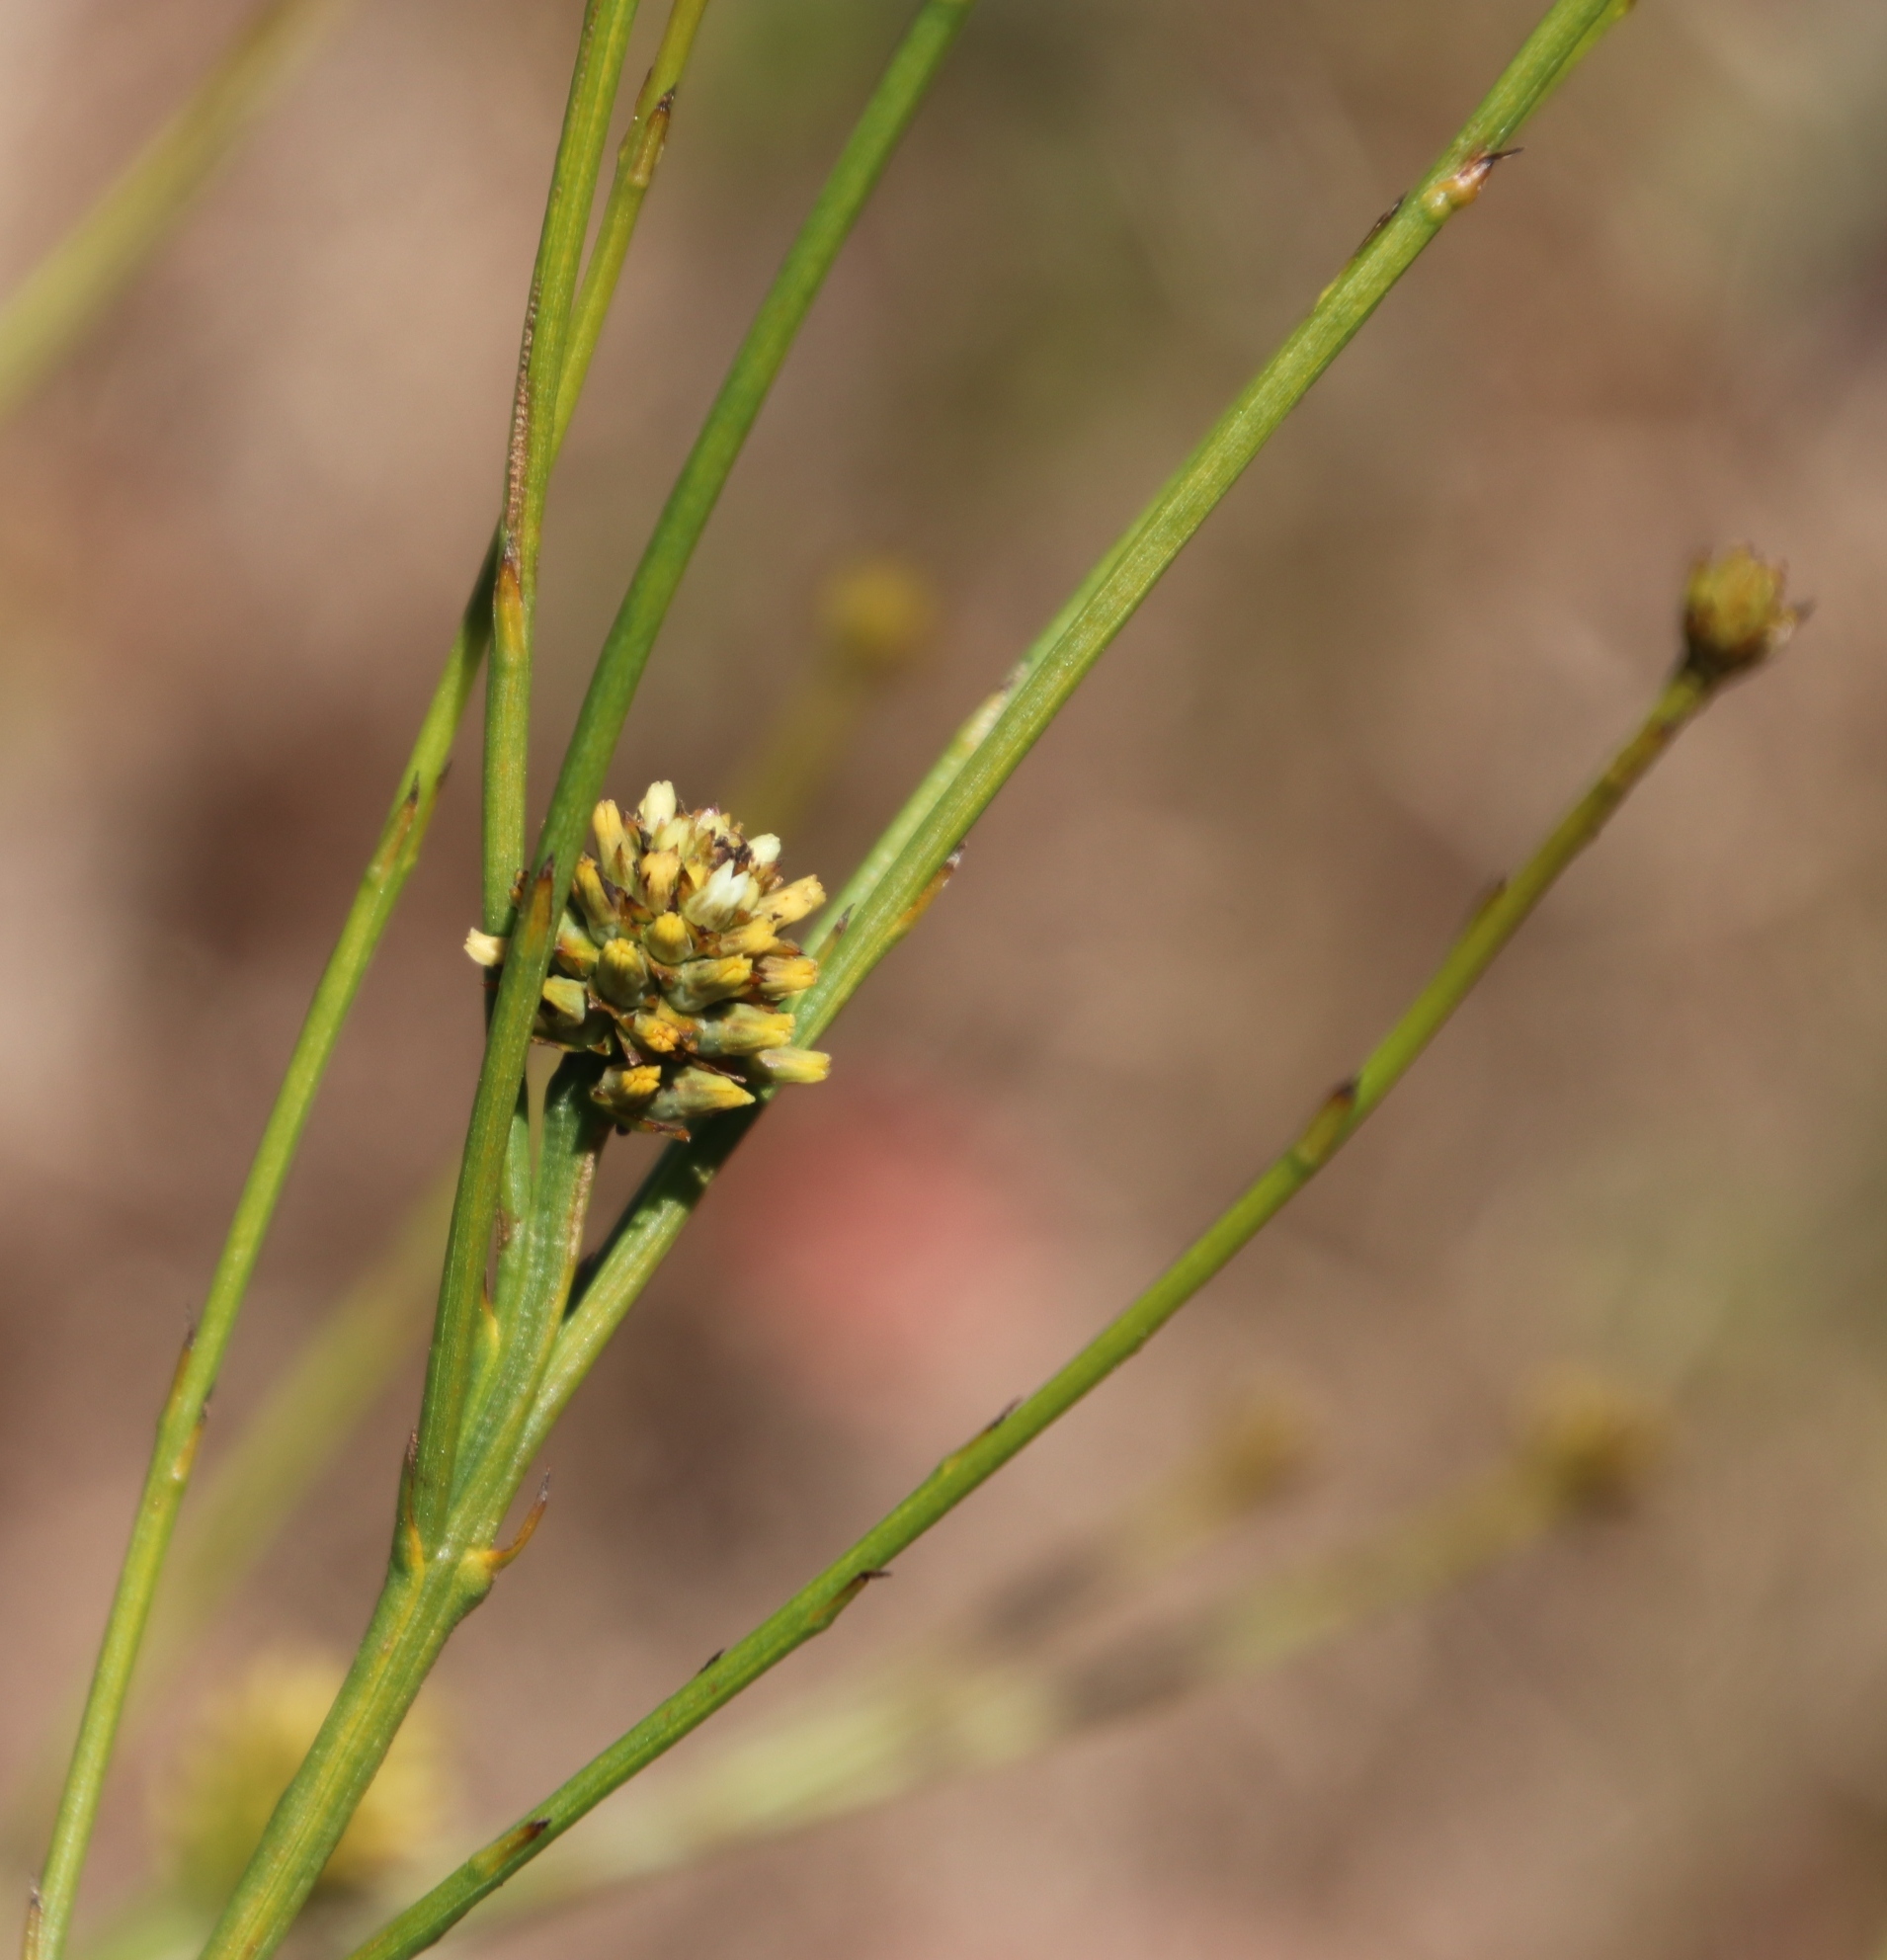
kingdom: Plantae
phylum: Tracheophyta
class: Magnoliopsida
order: Santalales
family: Thesiaceae
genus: Thesium
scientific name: Thesium aggregatum
